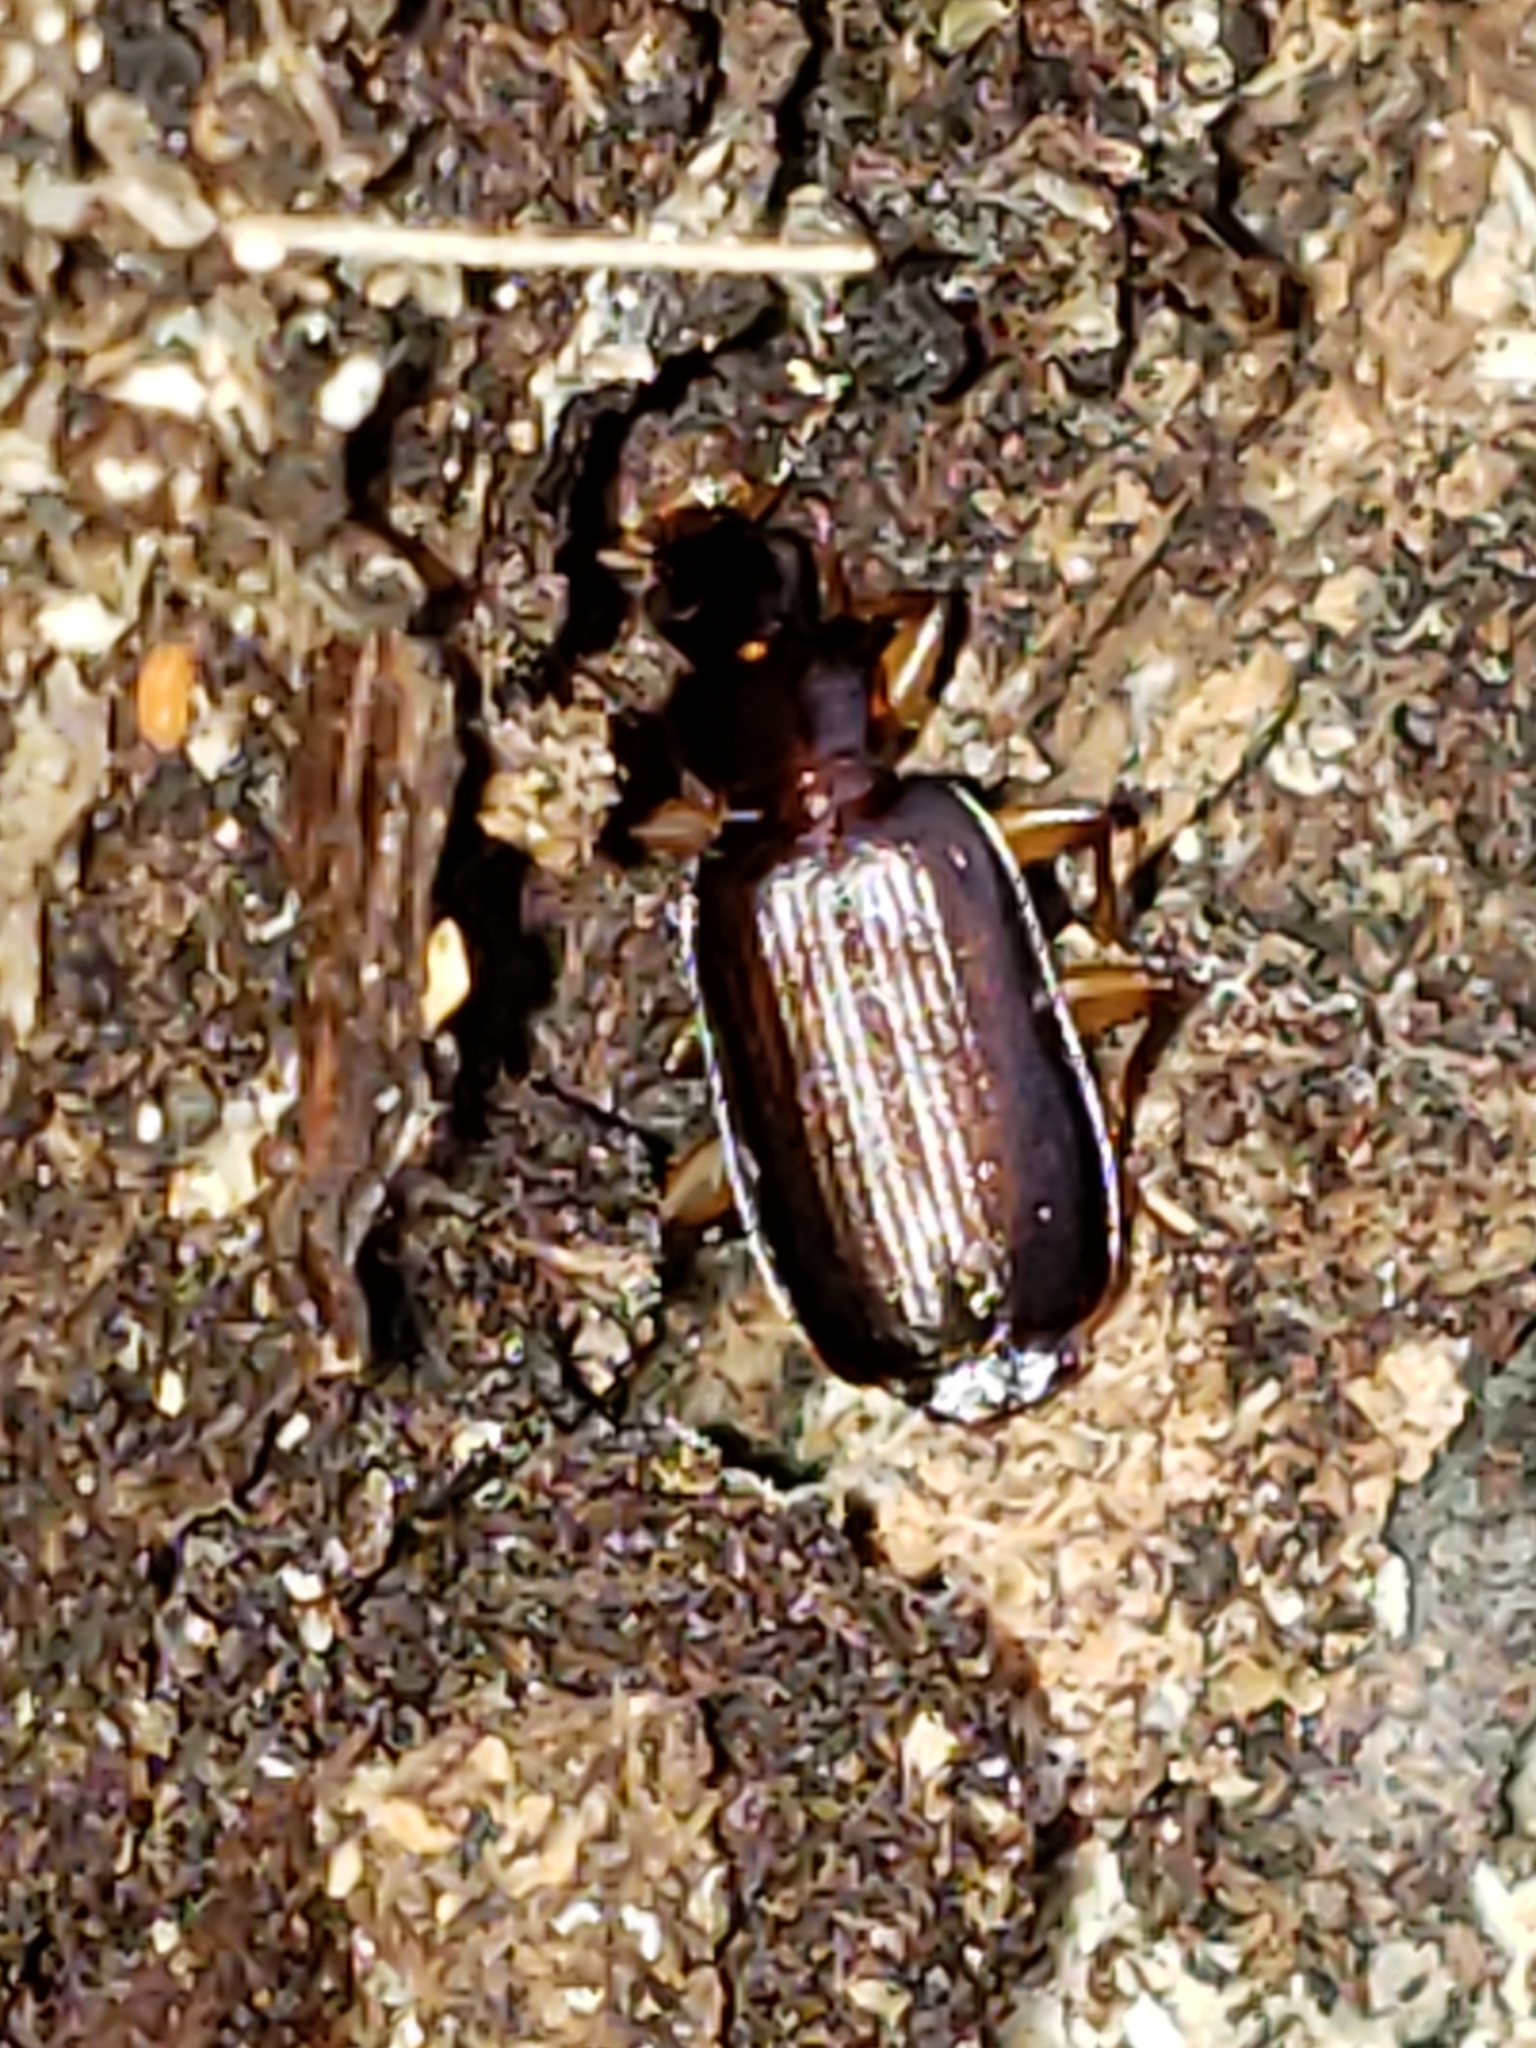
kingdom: Animalia
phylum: Arthropoda
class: Insecta
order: Coleoptera
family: Carabidae
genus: Dromius
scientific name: Dromius piceus
